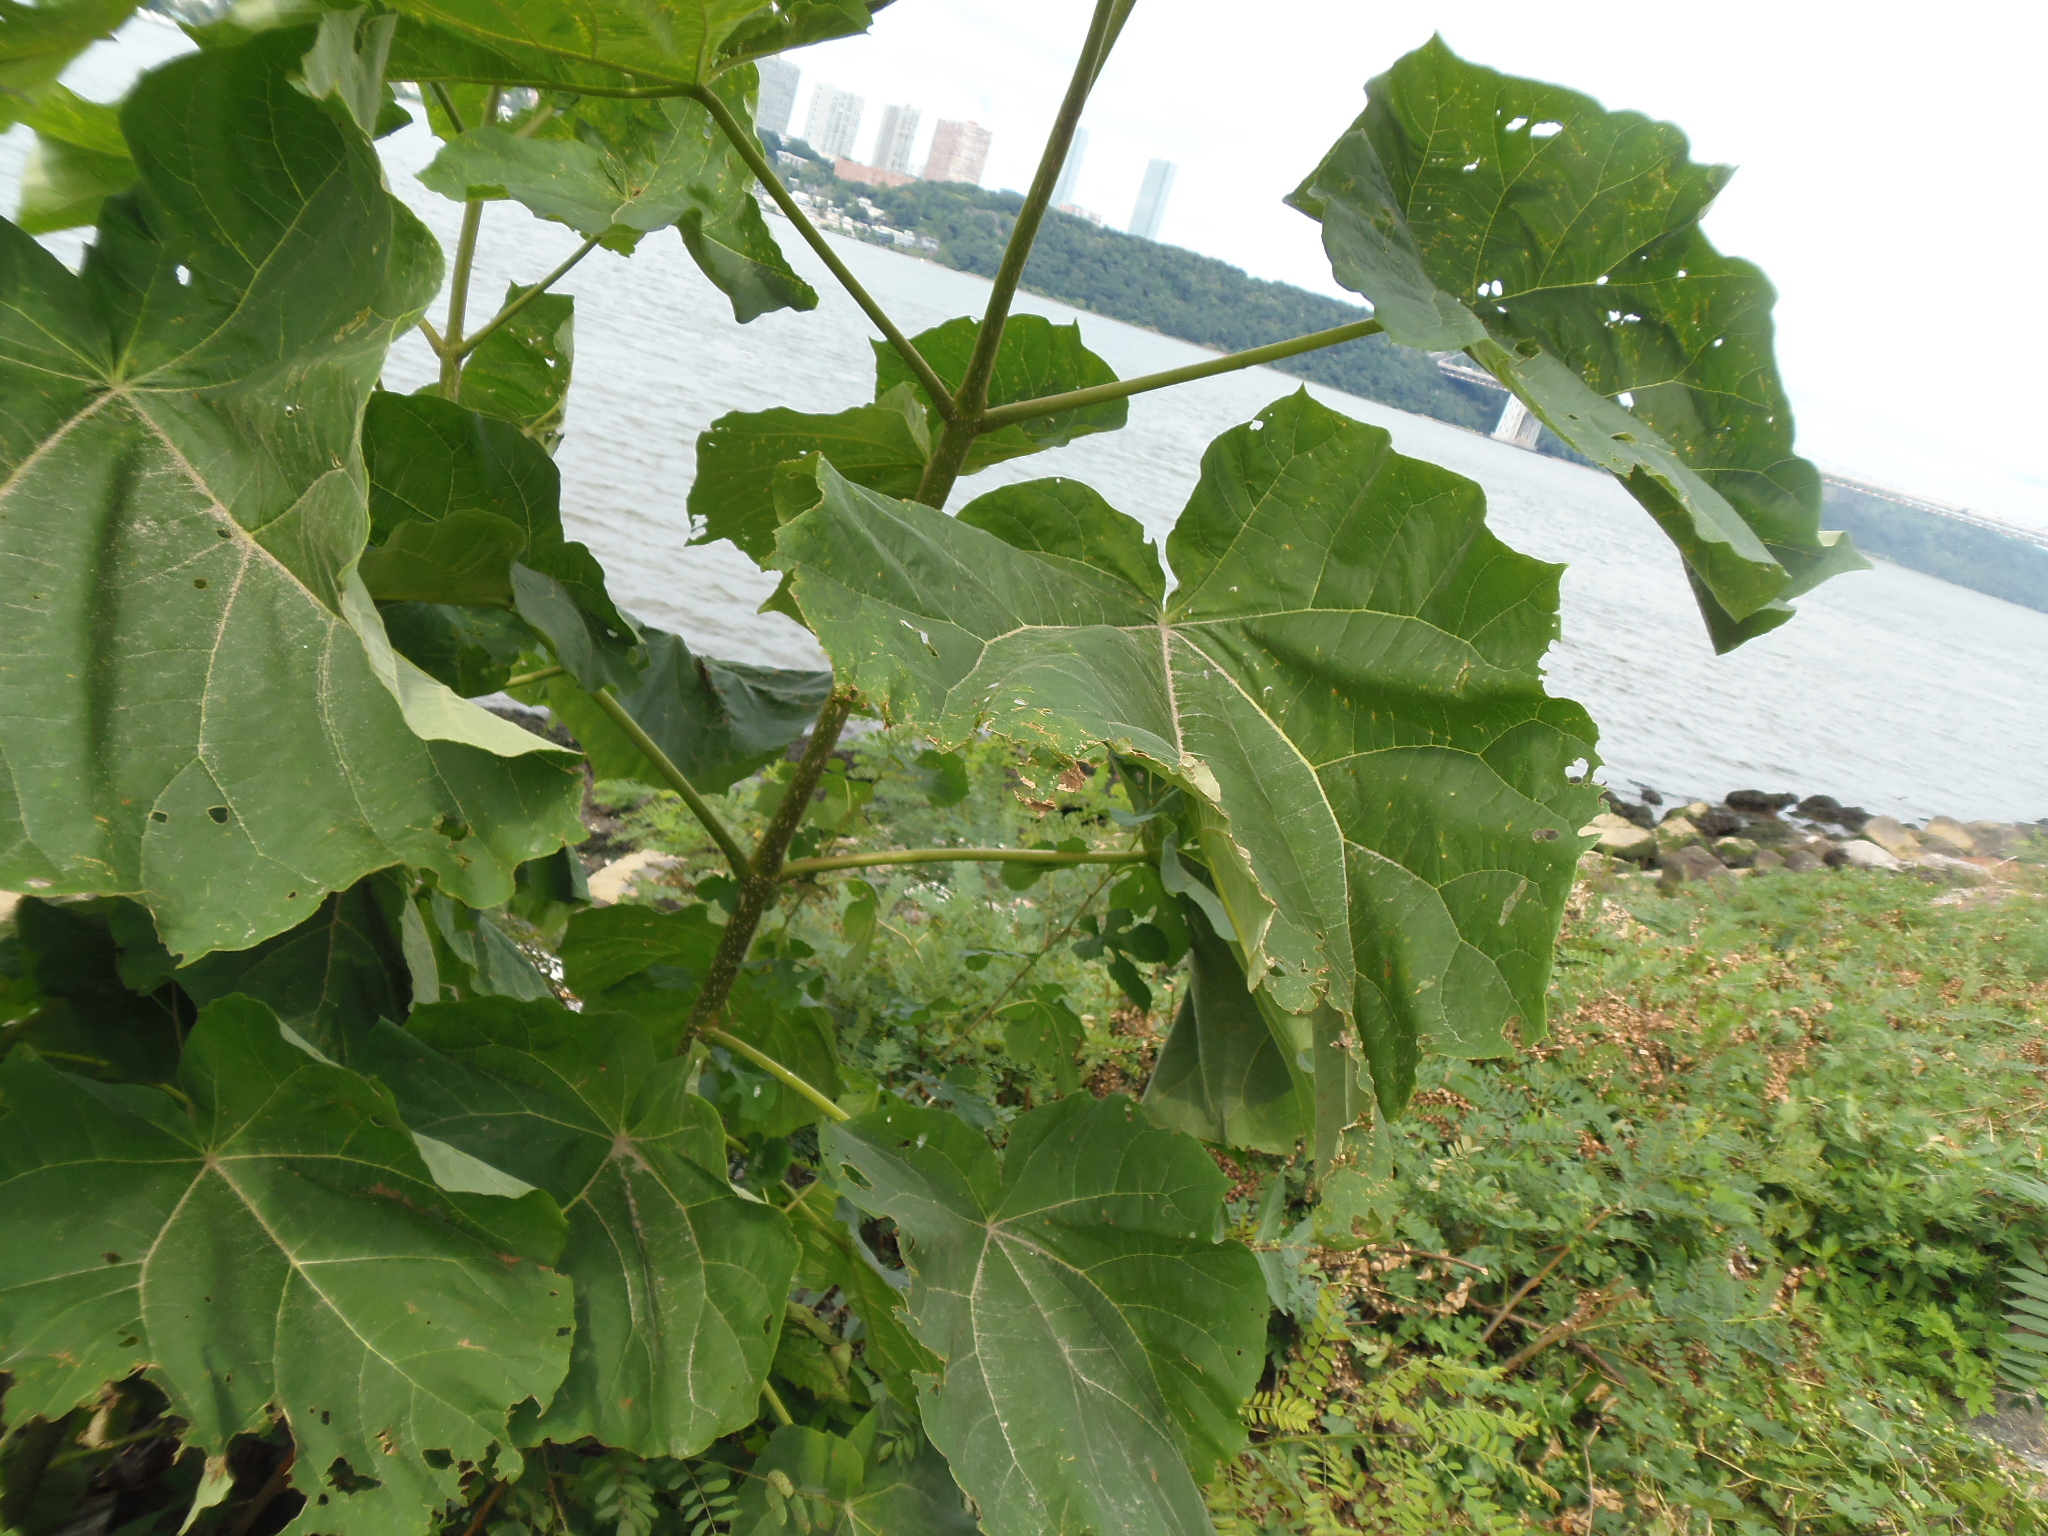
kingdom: Plantae
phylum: Tracheophyta
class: Magnoliopsida
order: Lamiales
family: Paulowniaceae
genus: Paulownia
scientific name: Paulownia tomentosa
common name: Foxglove-tree
